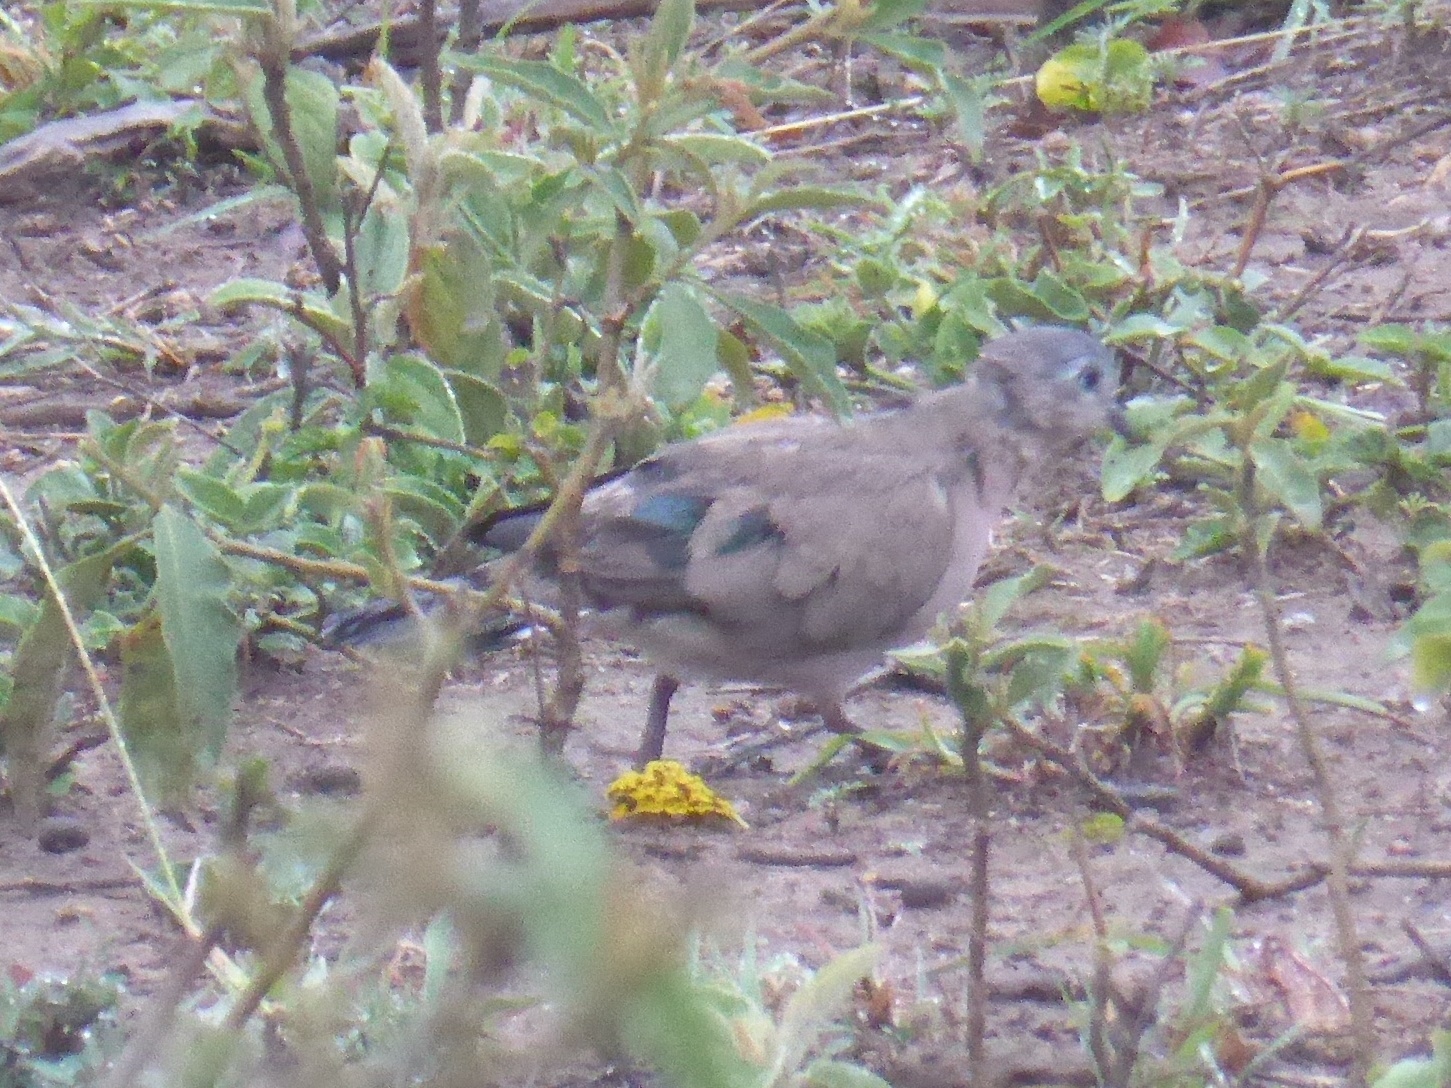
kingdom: Animalia
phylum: Chordata
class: Aves
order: Columbiformes
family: Columbidae
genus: Turtur
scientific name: Turtur chalcospilos
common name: Emerald-spotted wood dove
